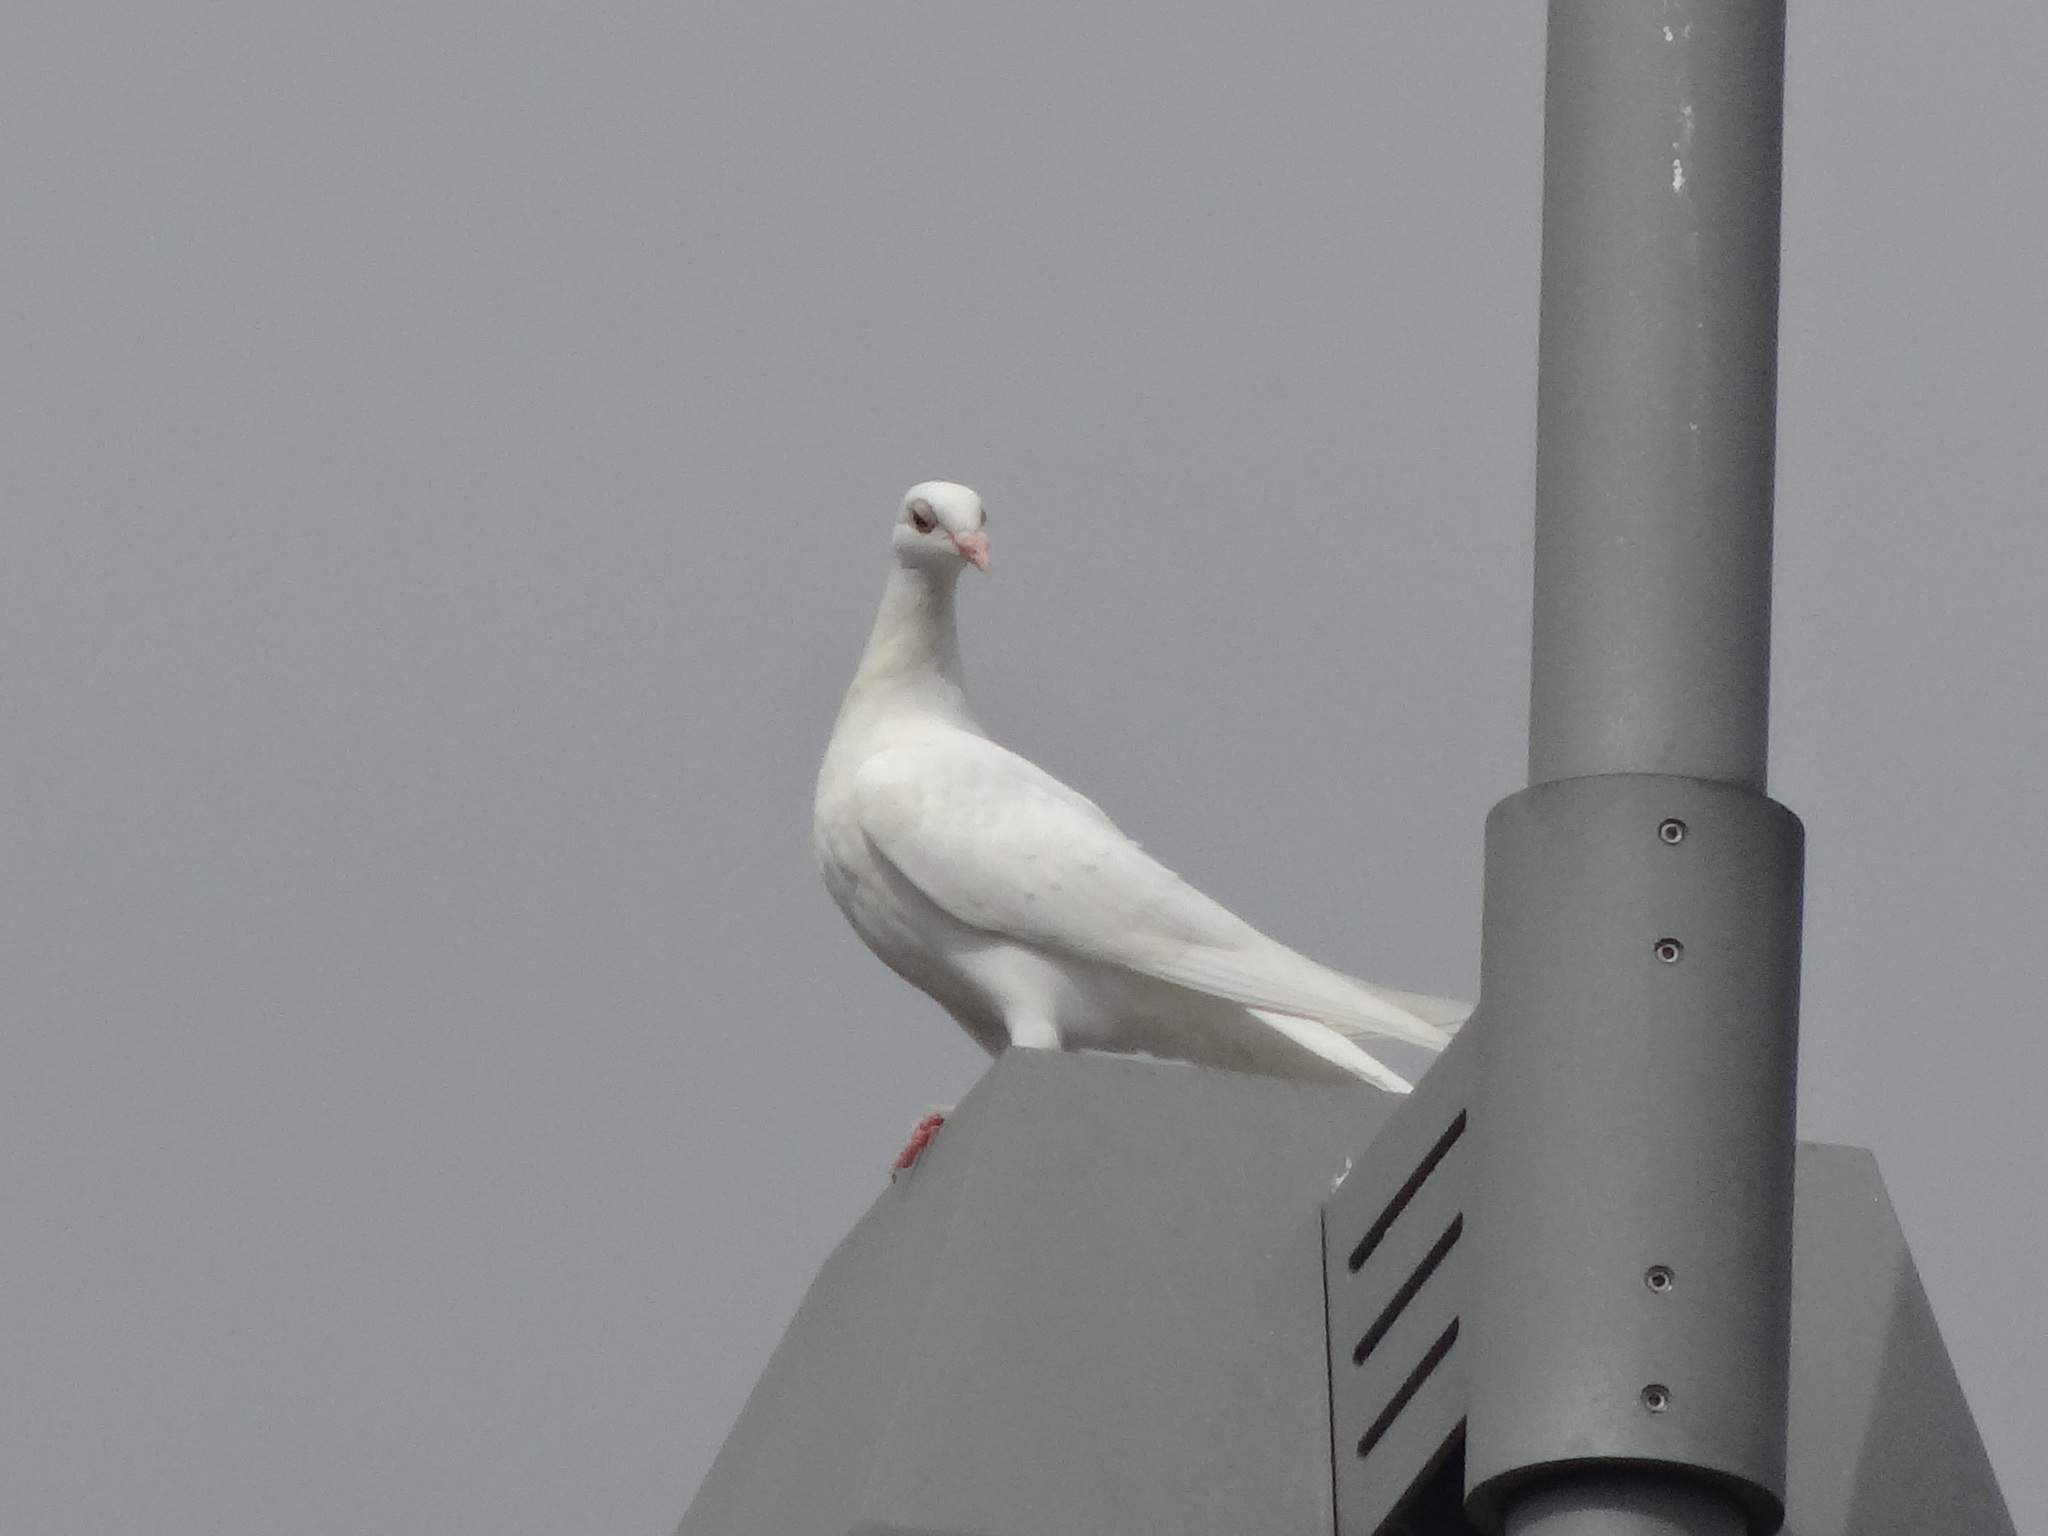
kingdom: Animalia
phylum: Chordata
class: Aves
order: Columbiformes
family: Columbidae
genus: Columba
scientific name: Columba livia
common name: Rock pigeon
